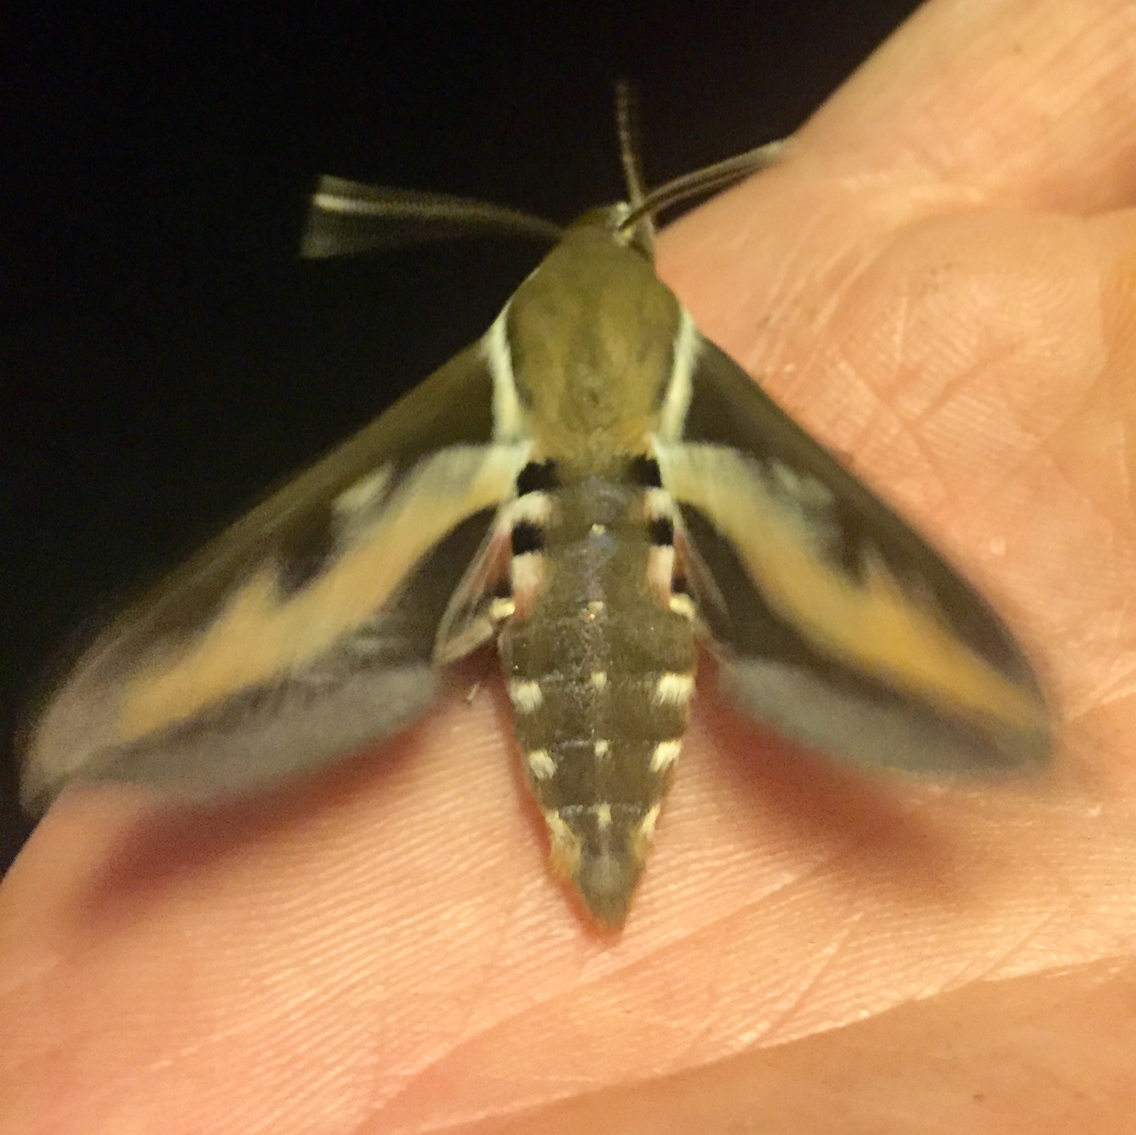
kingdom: Animalia
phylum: Arthropoda
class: Insecta
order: Lepidoptera
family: Sphingidae
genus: Hyles
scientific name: Hyles gallii
